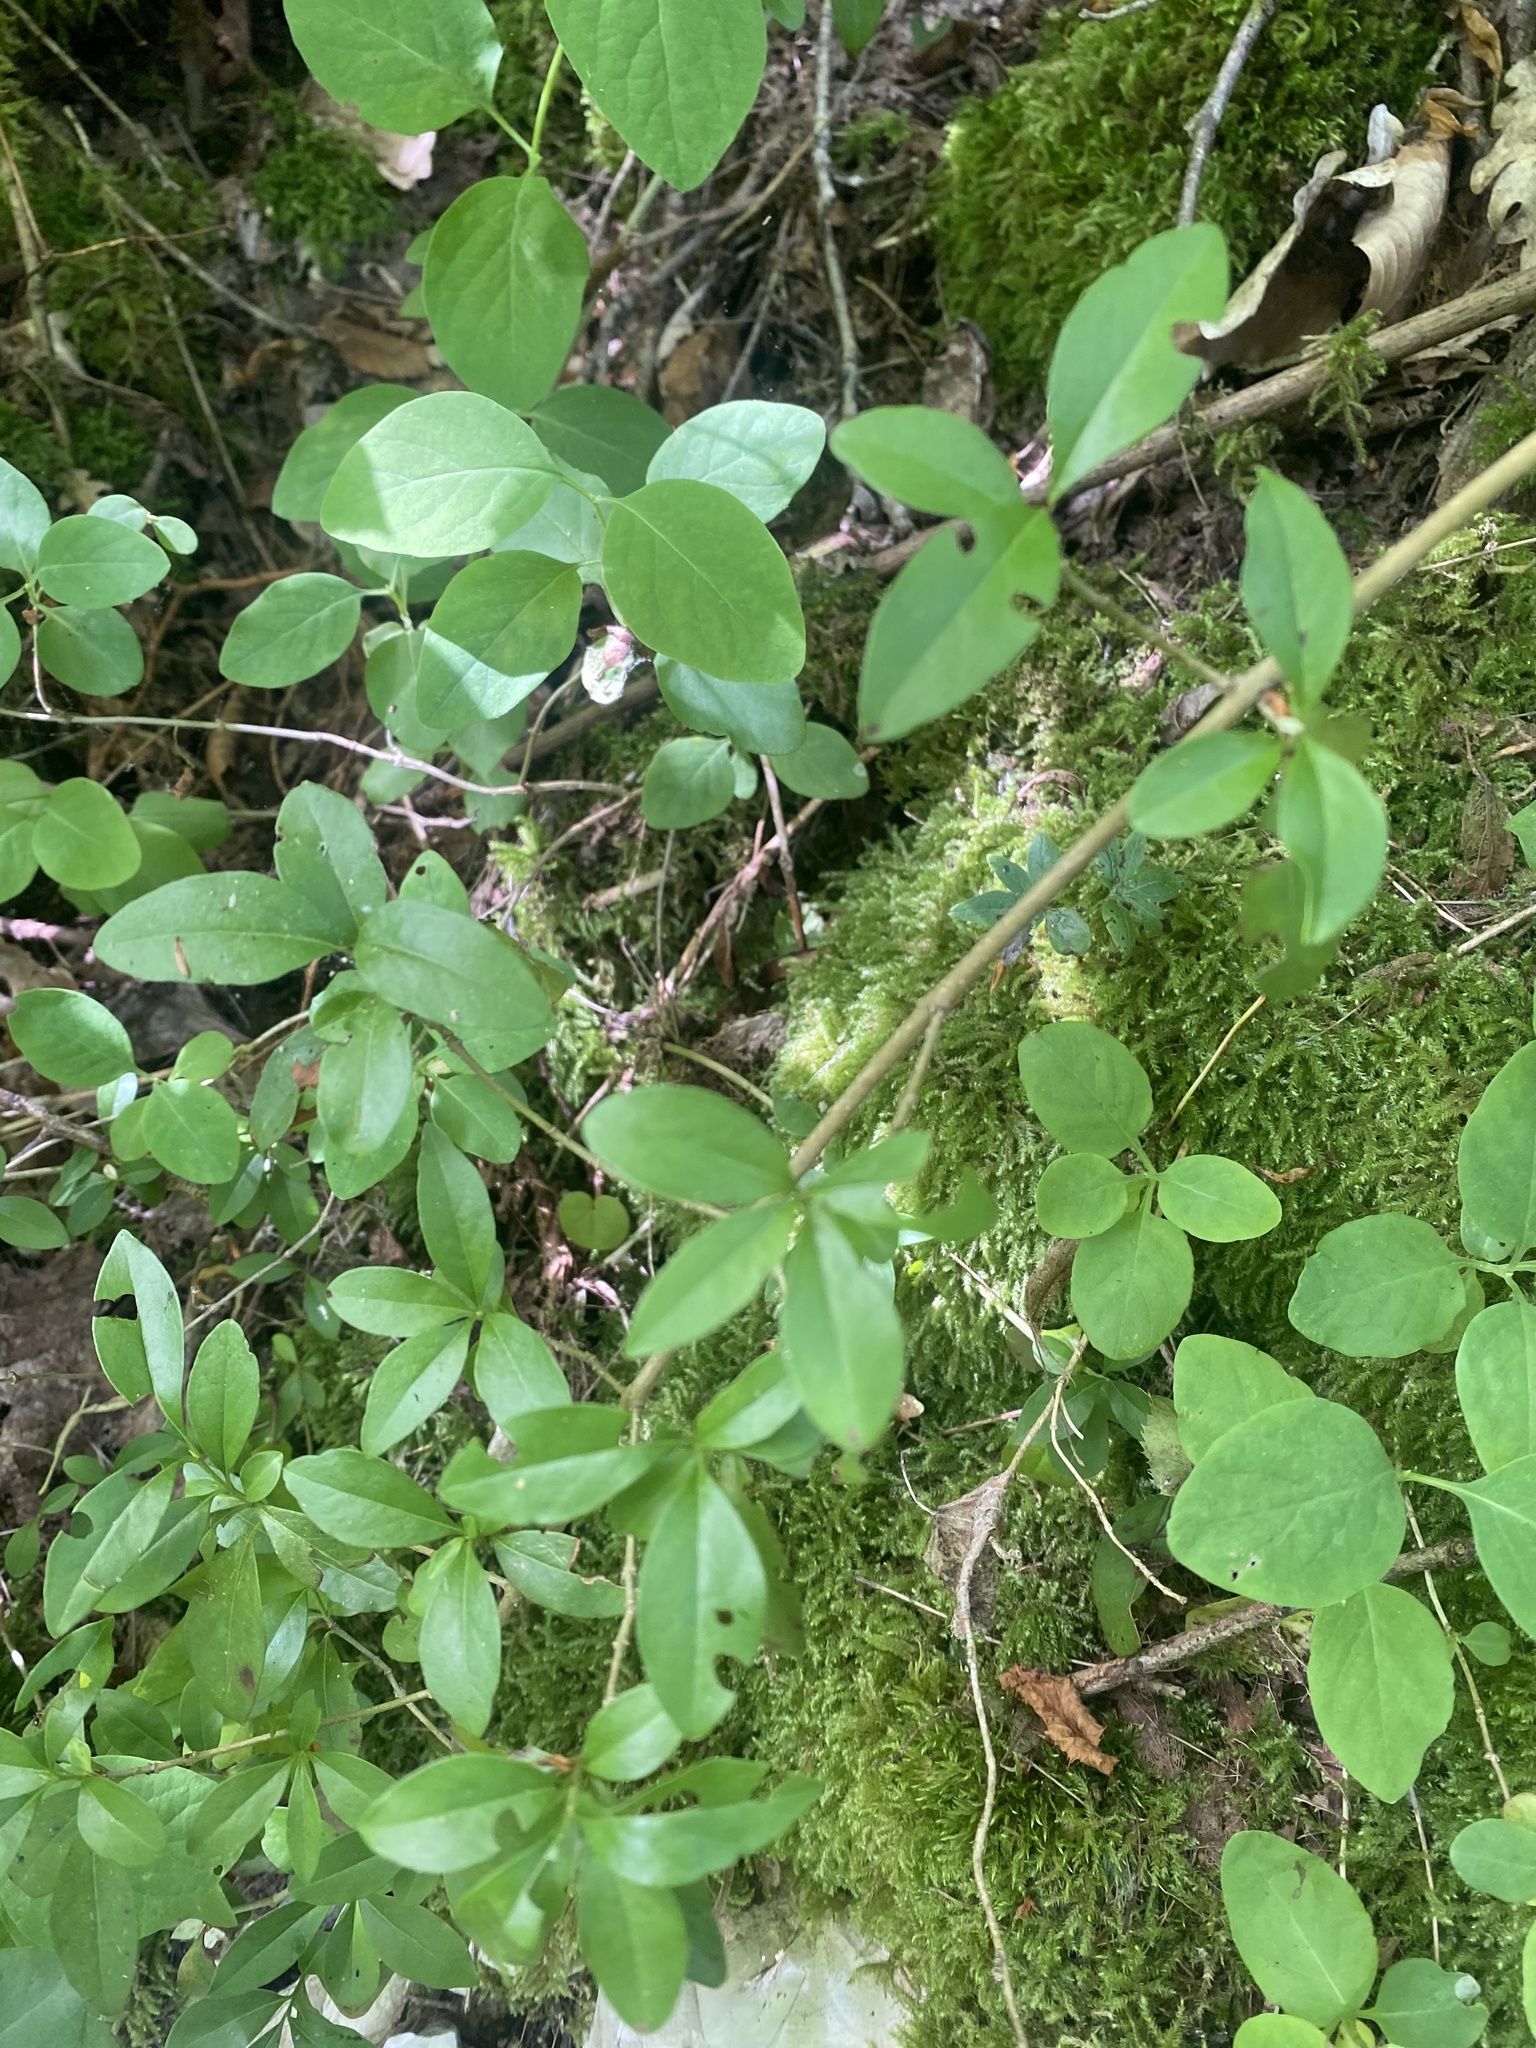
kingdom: Plantae
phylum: Tracheophyta
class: Magnoliopsida
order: Lamiales
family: Oleaceae
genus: Ligustrum
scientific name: Ligustrum vulgare
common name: Wild privet
